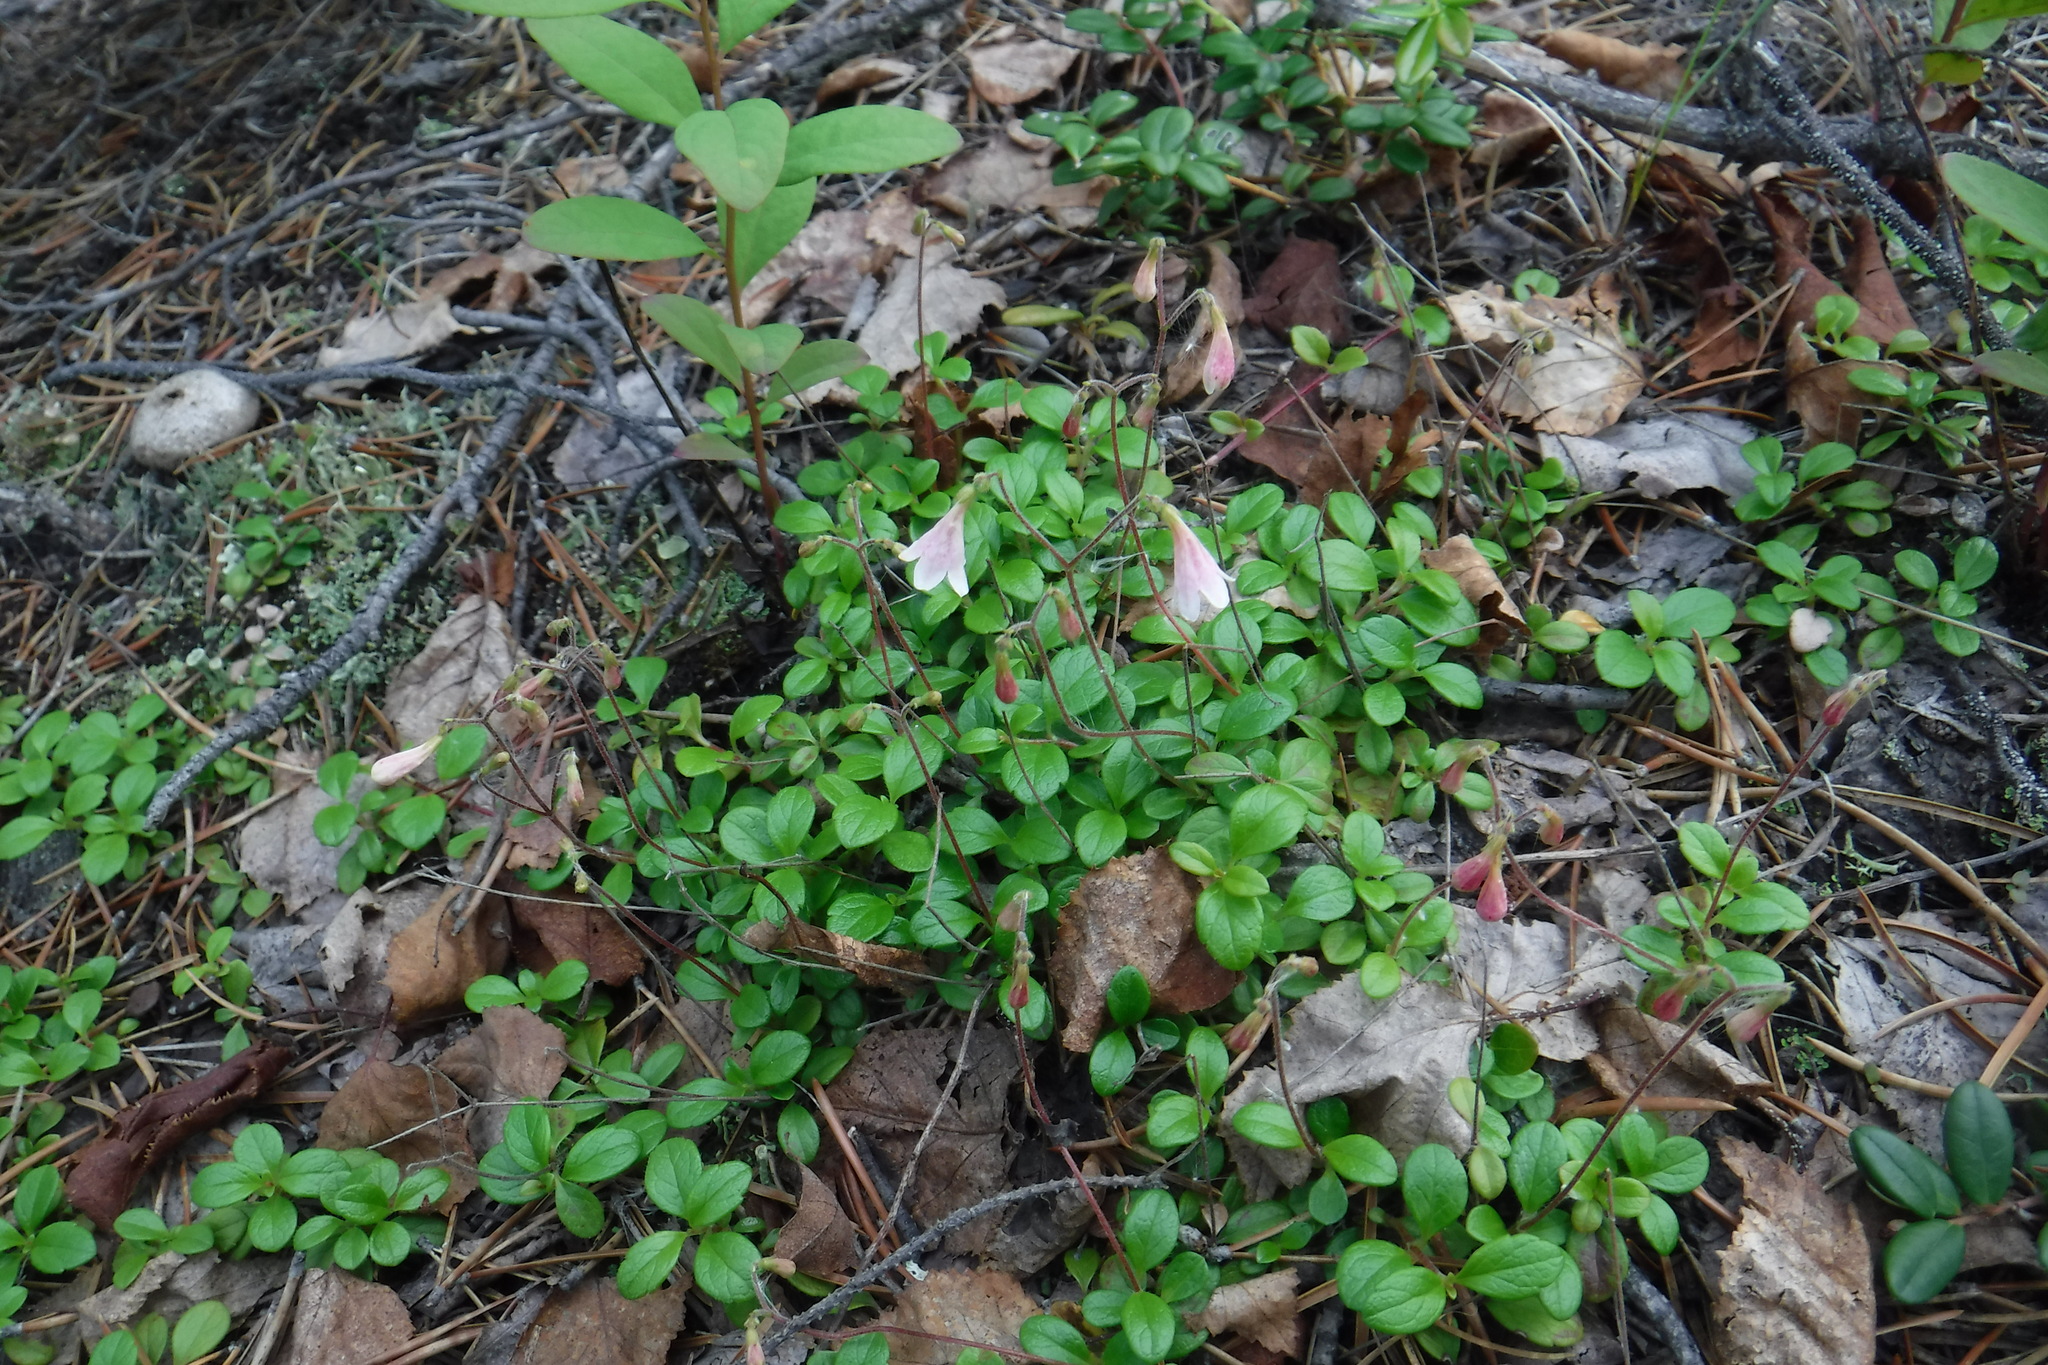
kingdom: Plantae
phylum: Tracheophyta
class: Magnoliopsida
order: Dipsacales
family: Caprifoliaceae
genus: Linnaea
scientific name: Linnaea borealis
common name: Twinflower
